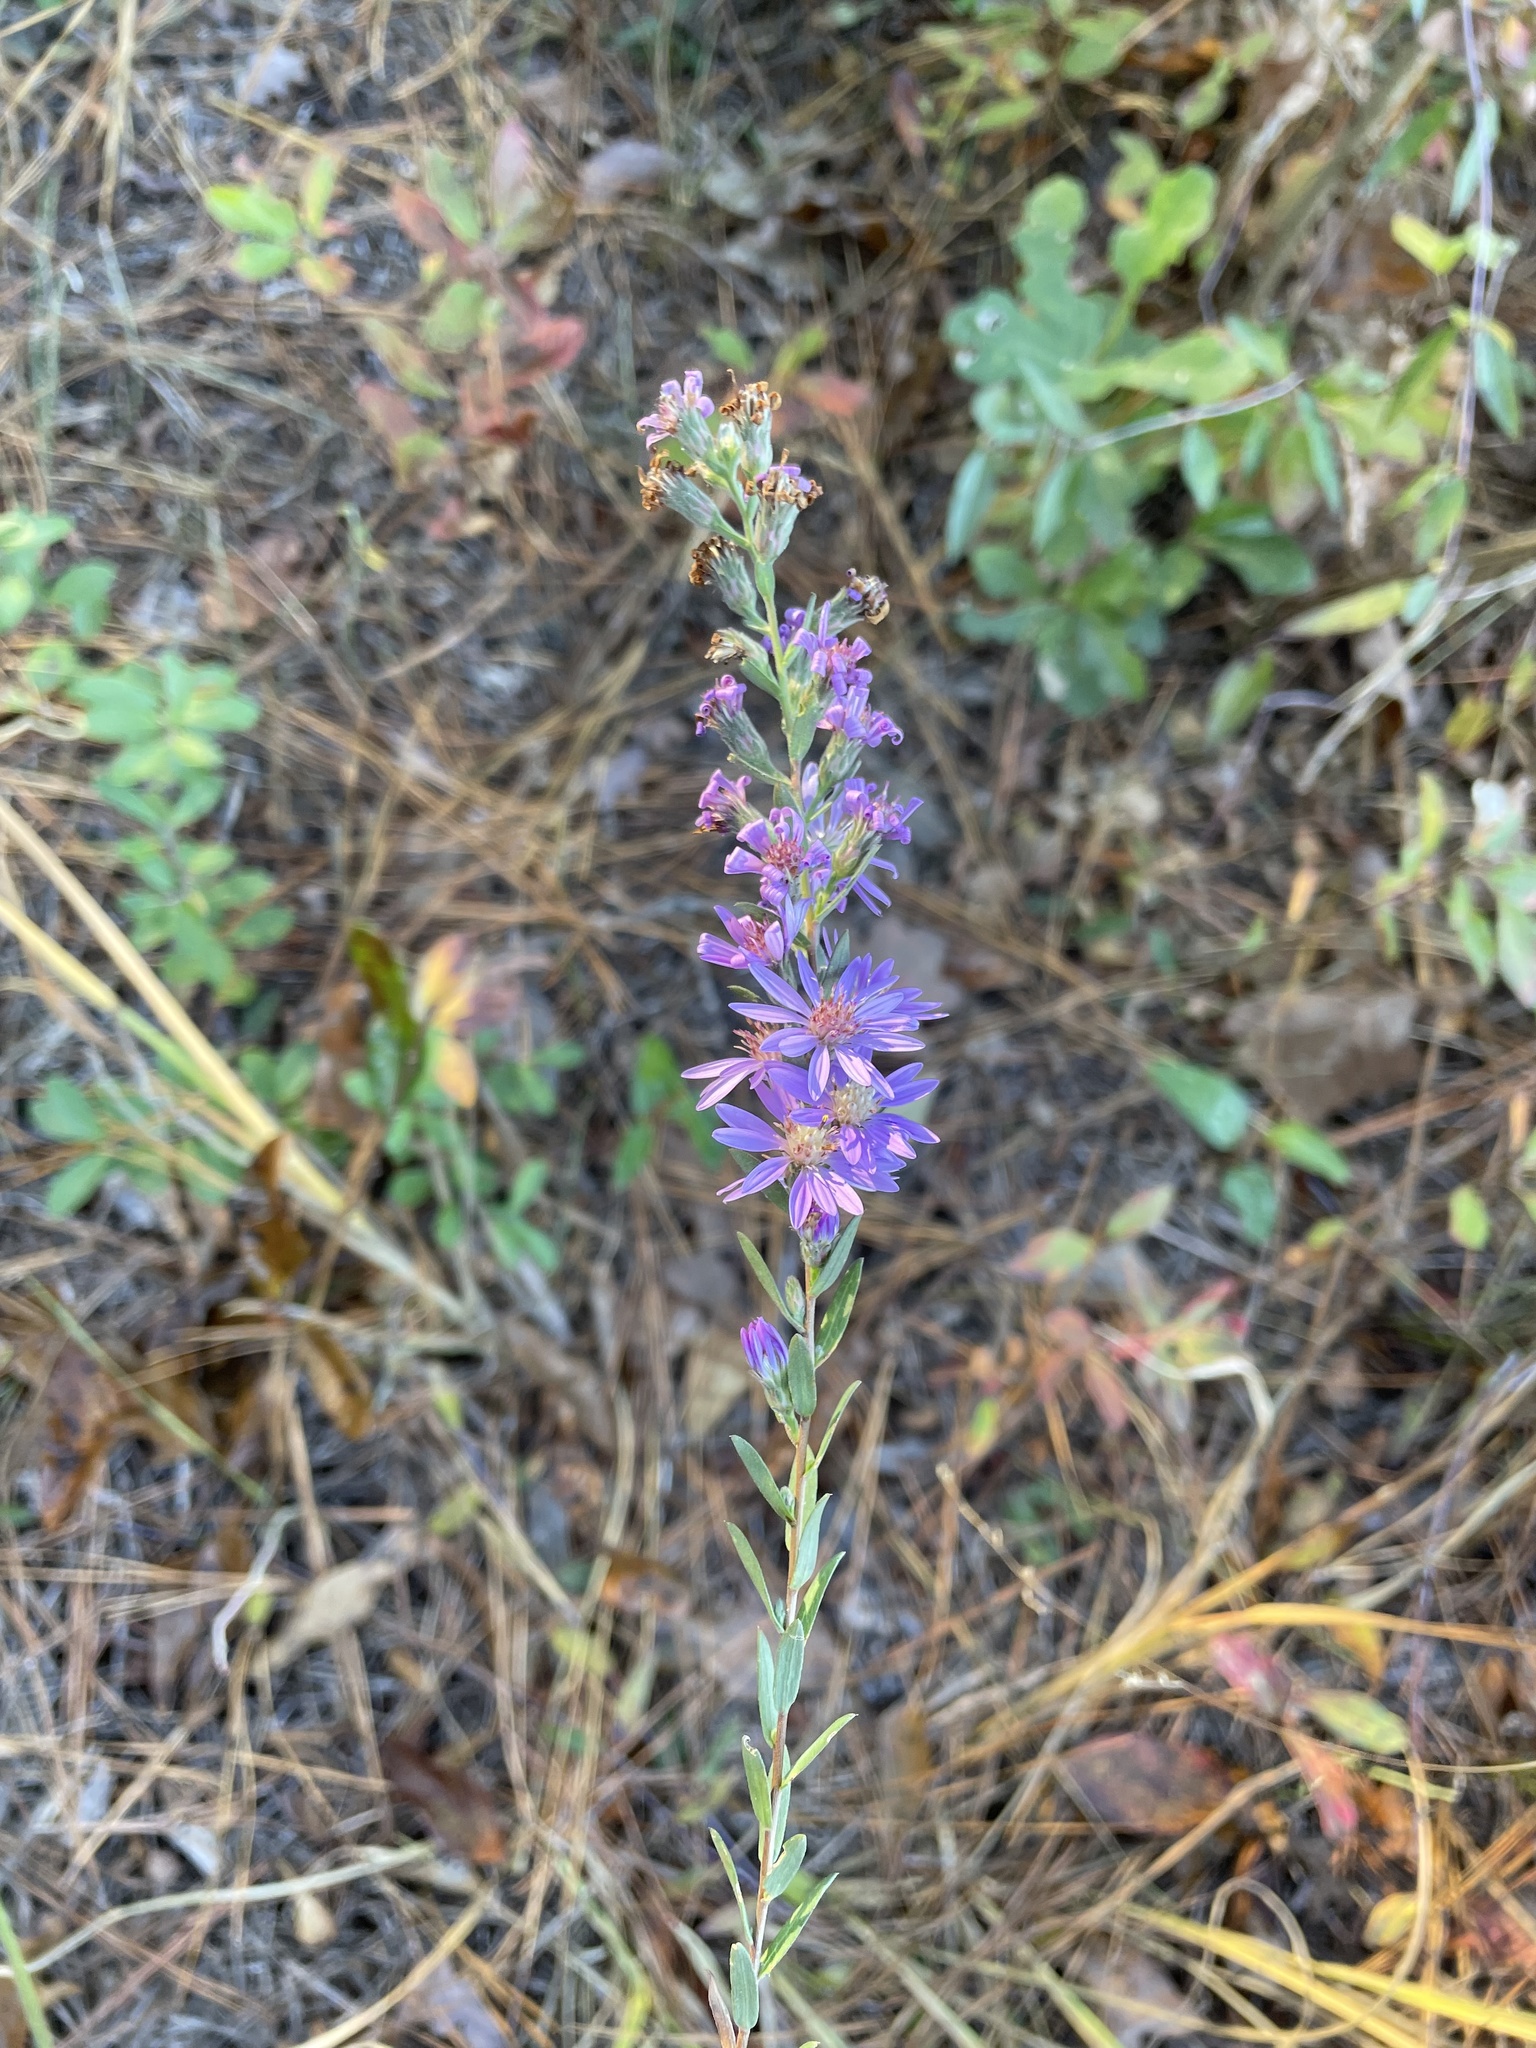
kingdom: Plantae
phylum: Tracheophyta
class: Magnoliopsida
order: Asterales
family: Asteraceae
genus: Symphyotrichum
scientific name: Symphyotrichum concolor
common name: Eastern silver aster
